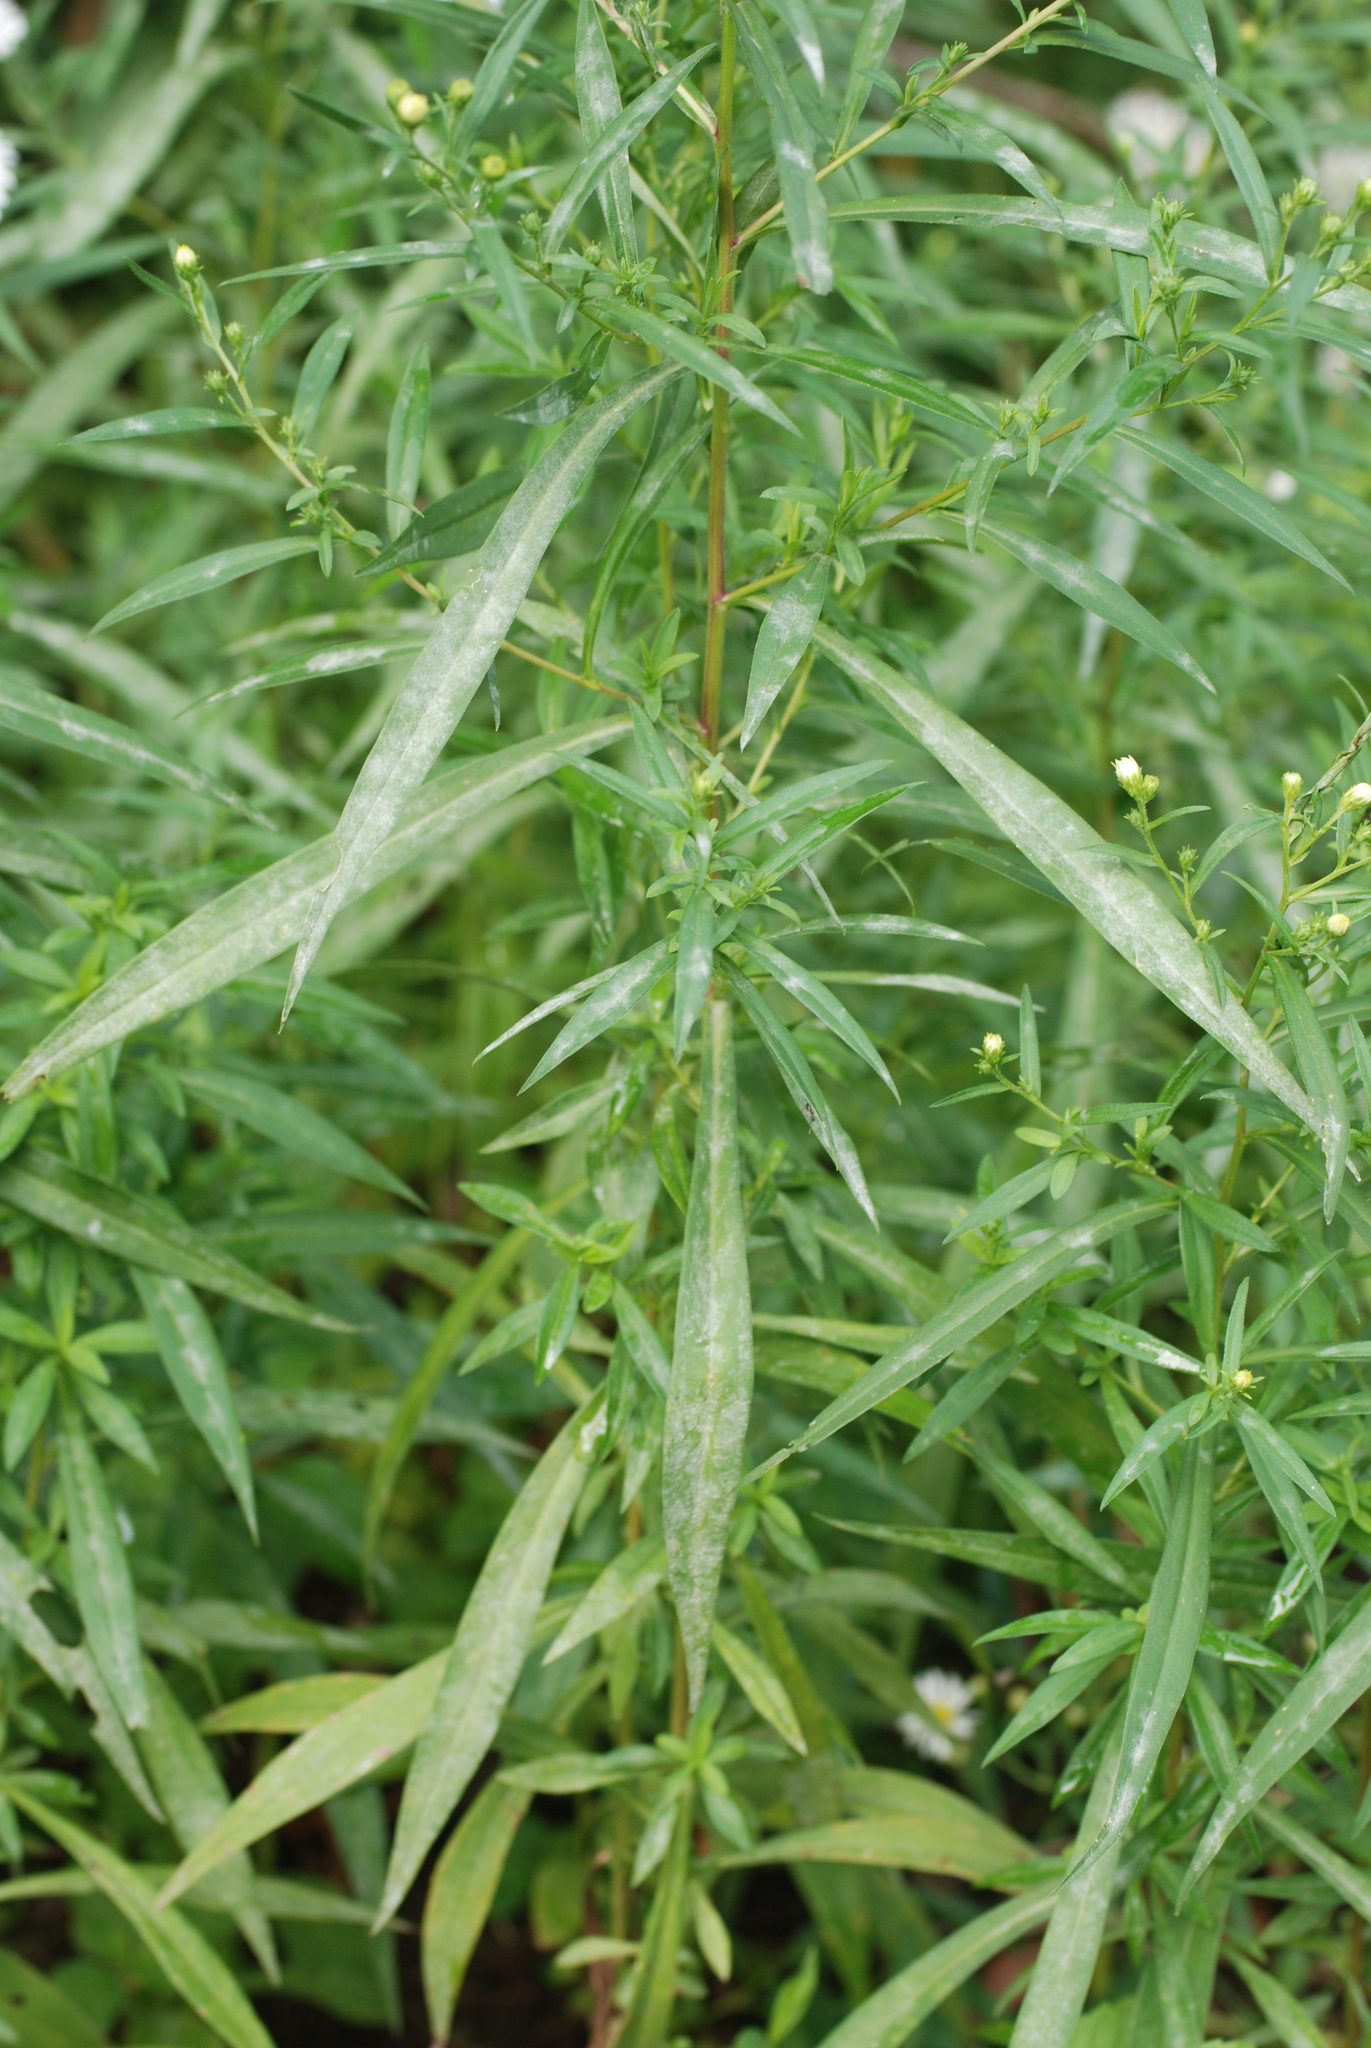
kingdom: Plantae
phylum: Tracheophyta
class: Magnoliopsida
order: Asterales
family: Asteraceae
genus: Symphyotrichum
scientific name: Symphyotrichum lanceolatum
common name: Panicled aster
